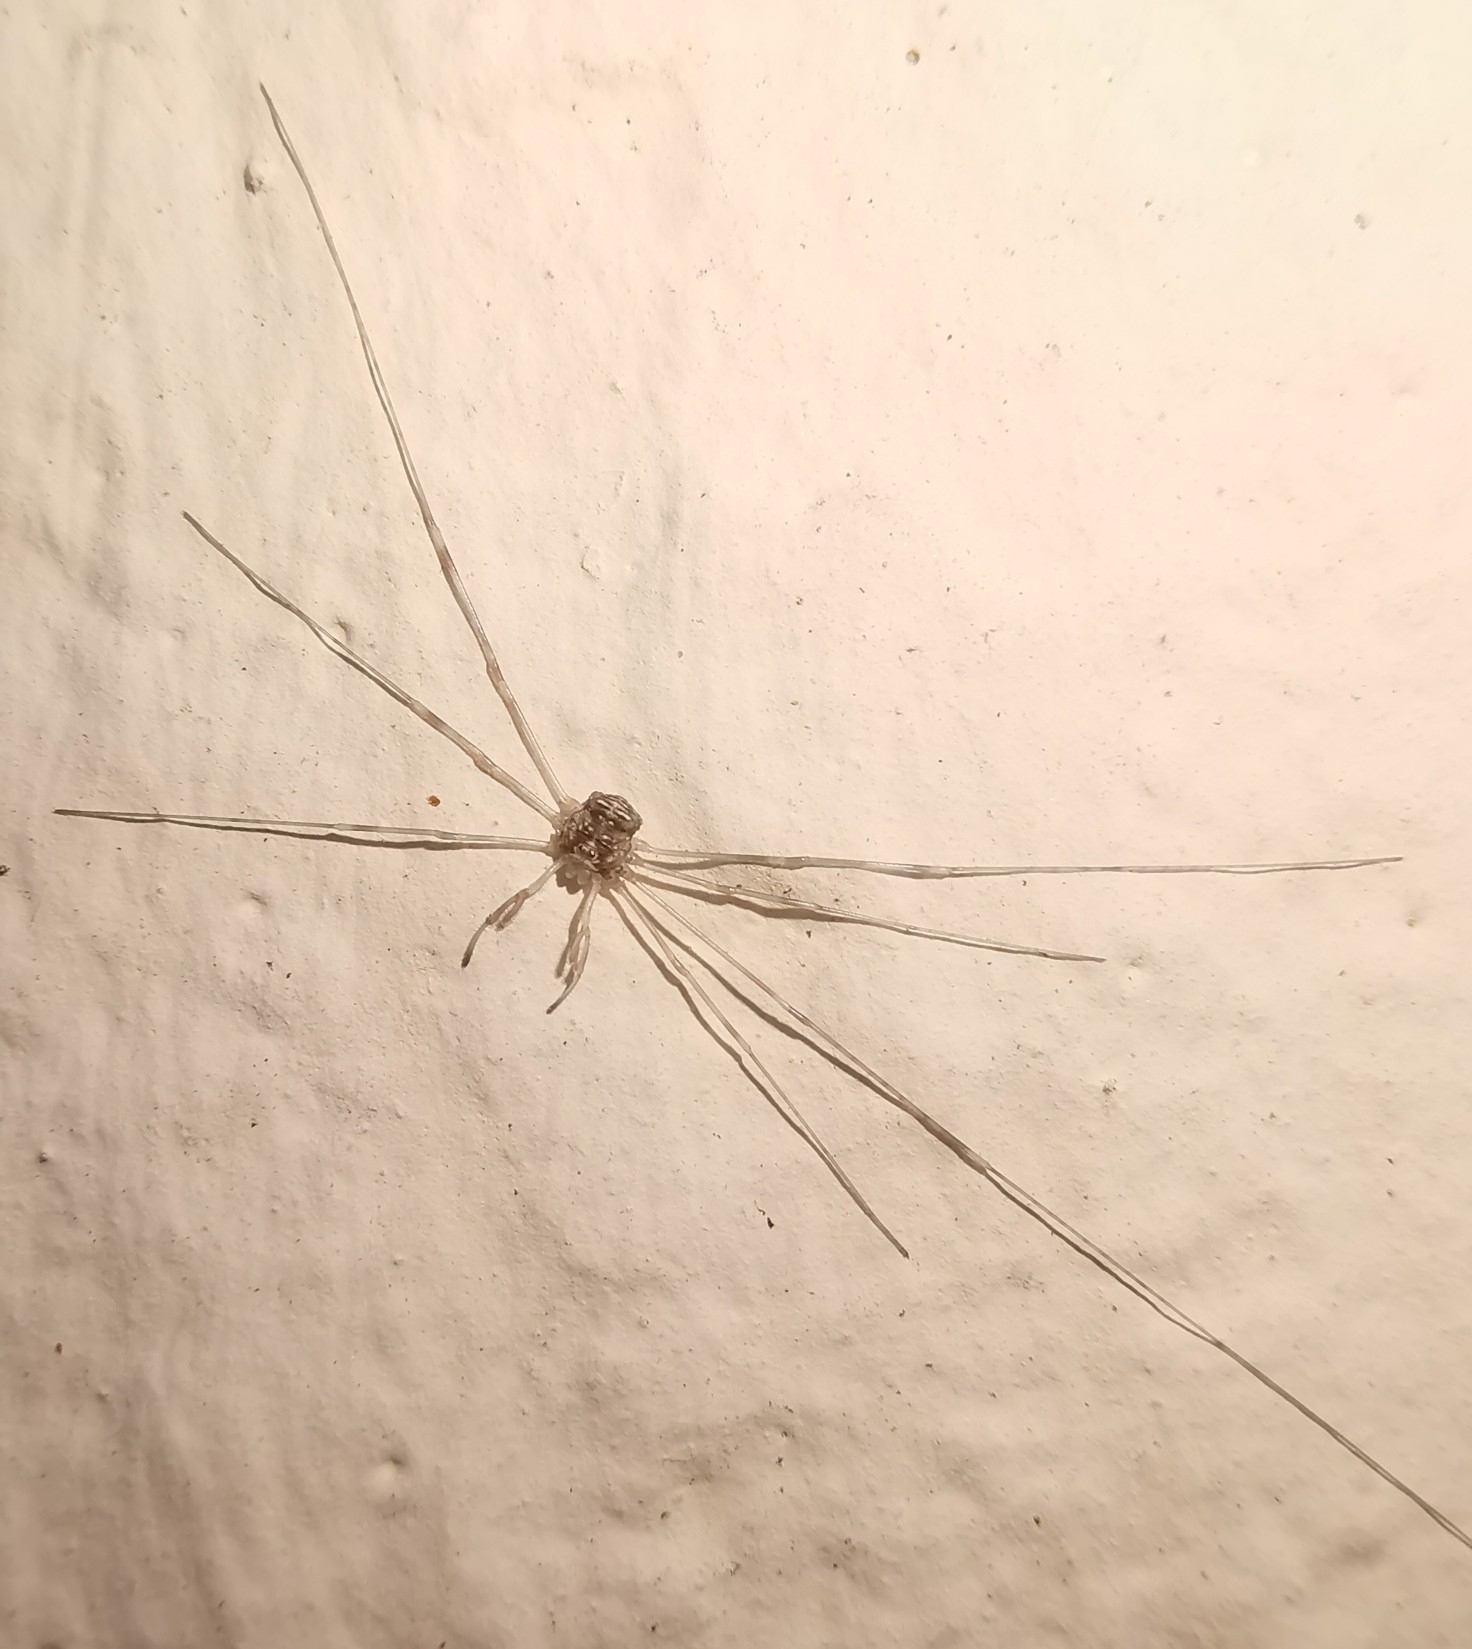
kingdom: Animalia
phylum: Arthropoda
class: Arachnida
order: Opiliones
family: Phalangiidae
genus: Dicranopalpus
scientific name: Dicranopalpus ramosus
